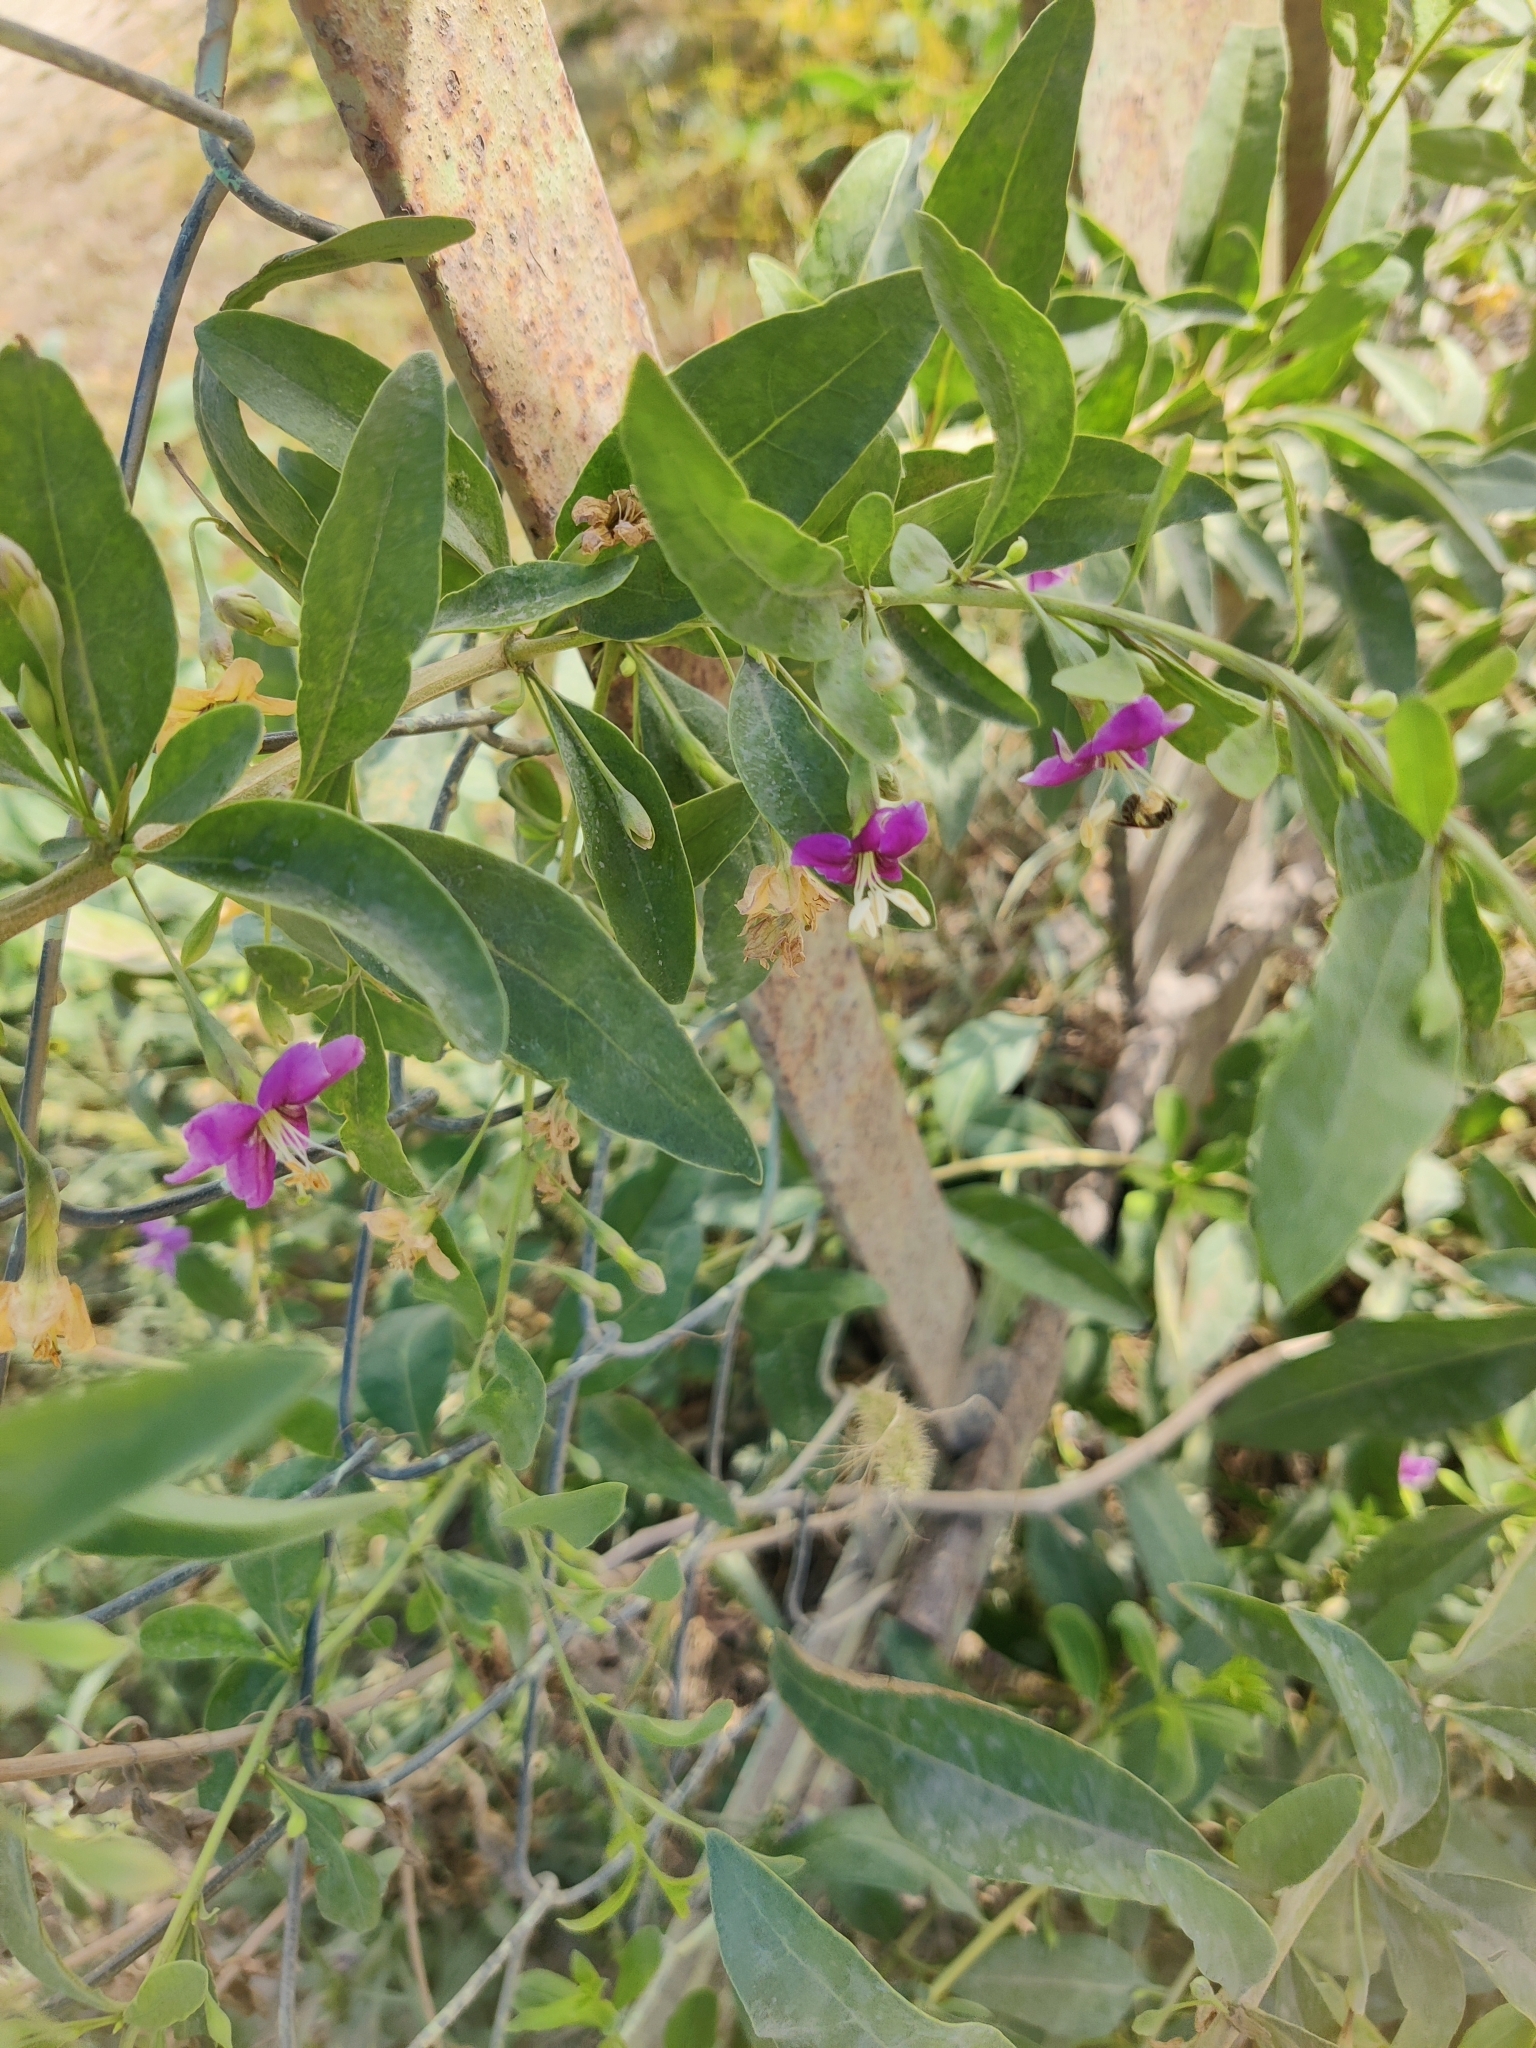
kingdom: Plantae
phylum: Tracheophyta
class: Magnoliopsida
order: Solanales
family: Solanaceae
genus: Lycium
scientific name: Lycium barbarum
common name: Duke of argyll's teaplant
